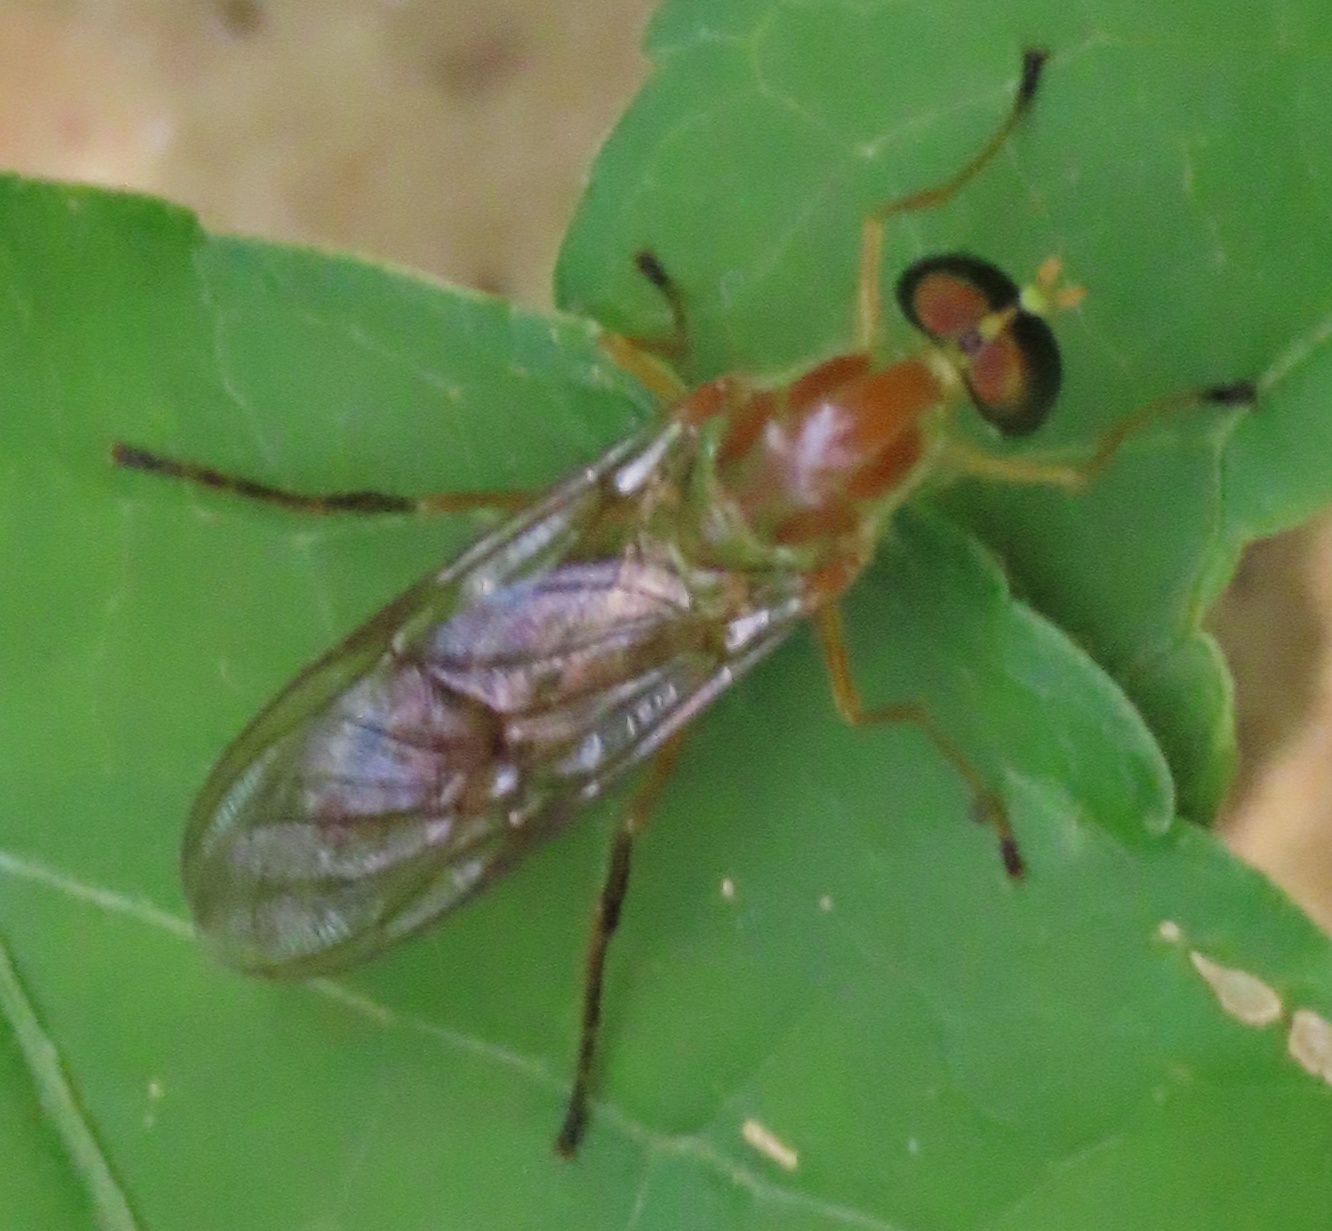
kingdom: Animalia
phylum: Arthropoda
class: Insecta
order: Diptera
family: Stratiomyidae
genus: Ptecticus
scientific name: Ptecticus trivittatus
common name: Compost fly
